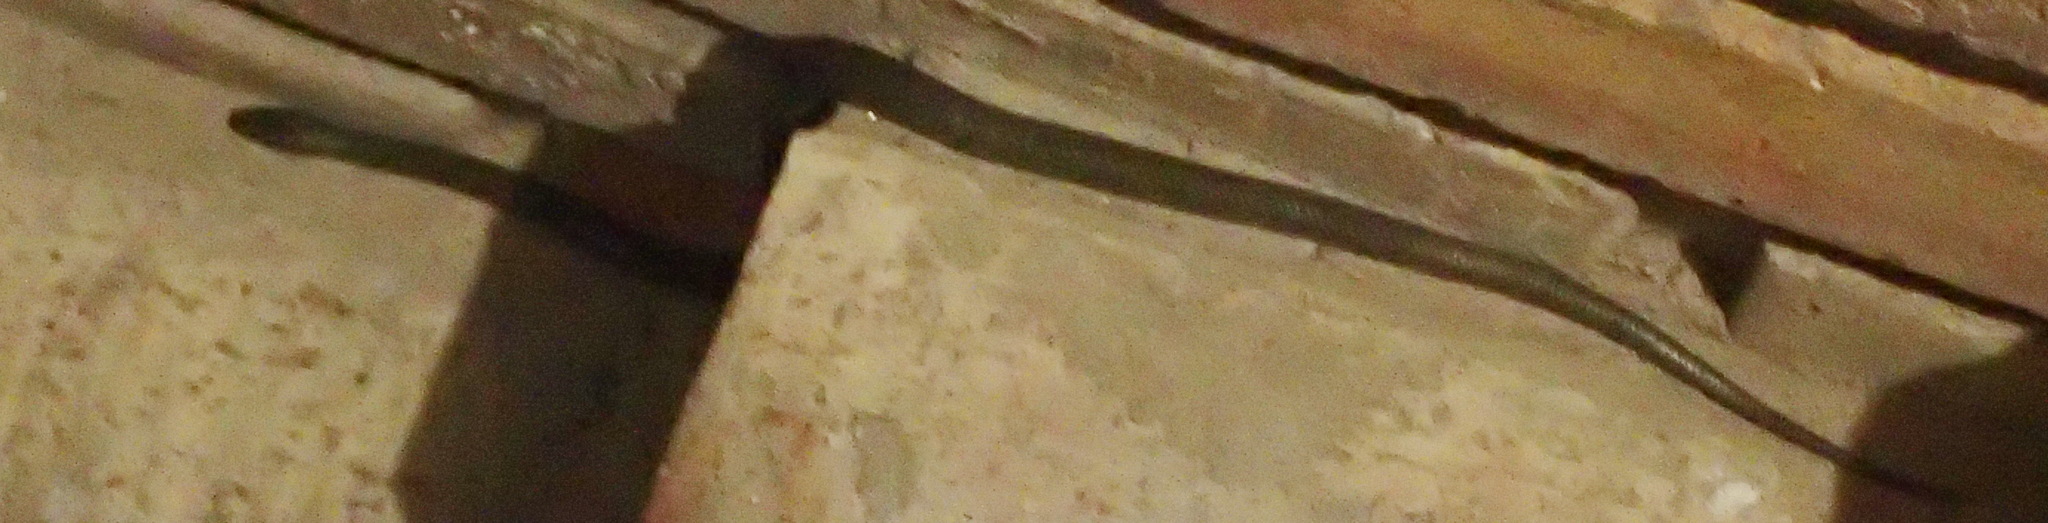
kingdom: Animalia
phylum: Chordata
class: Squamata
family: Lamprophiidae
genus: Lycodonomorphus
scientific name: Lycodonomorphus inornatus
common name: Black house snake
